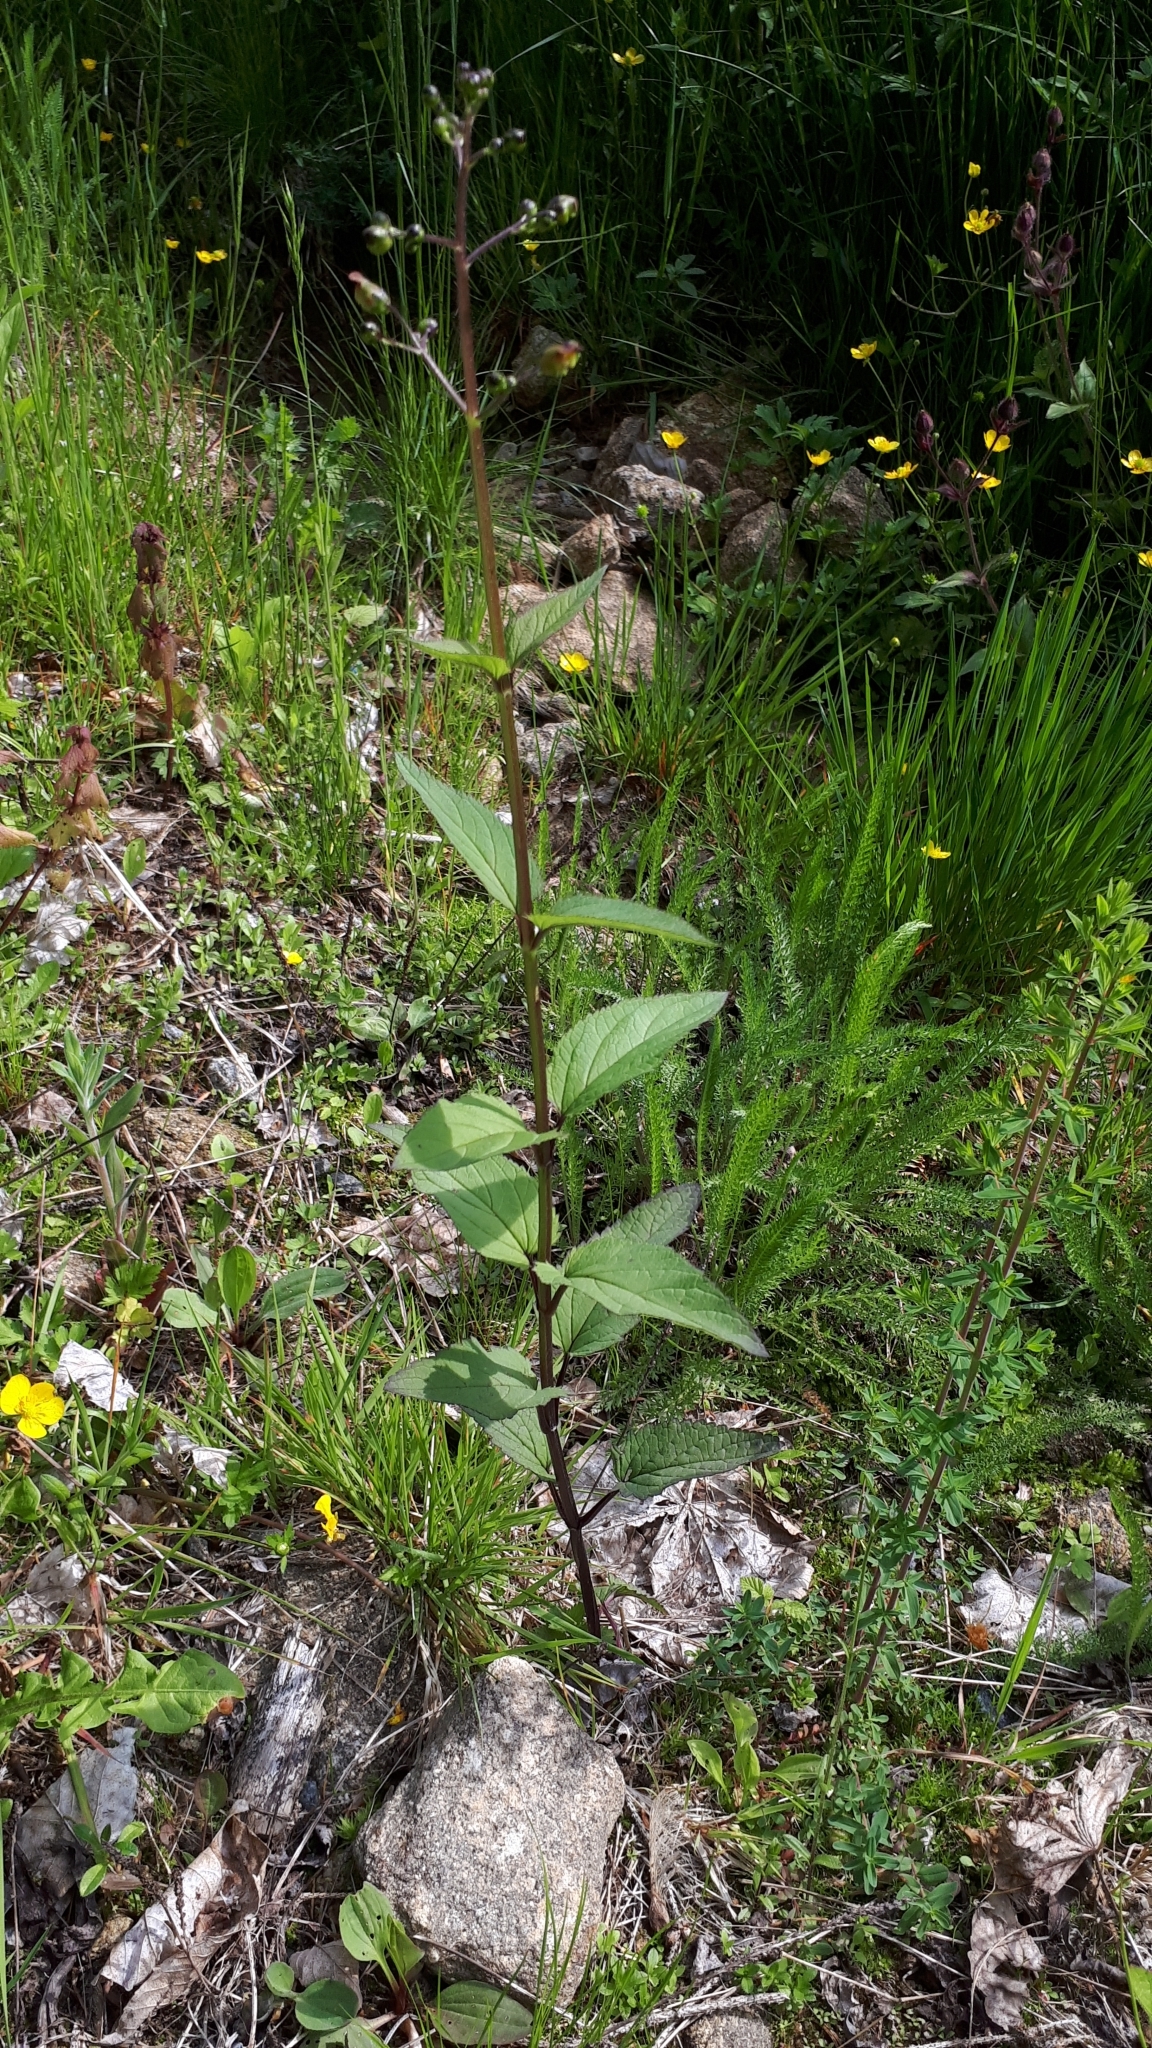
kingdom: Plantae
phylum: Tracheophyta
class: Magnoliopsida
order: Lamiales
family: Scrophulariaceae
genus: Scrophularia
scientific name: Scrophularia nodosa
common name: Common figwort
